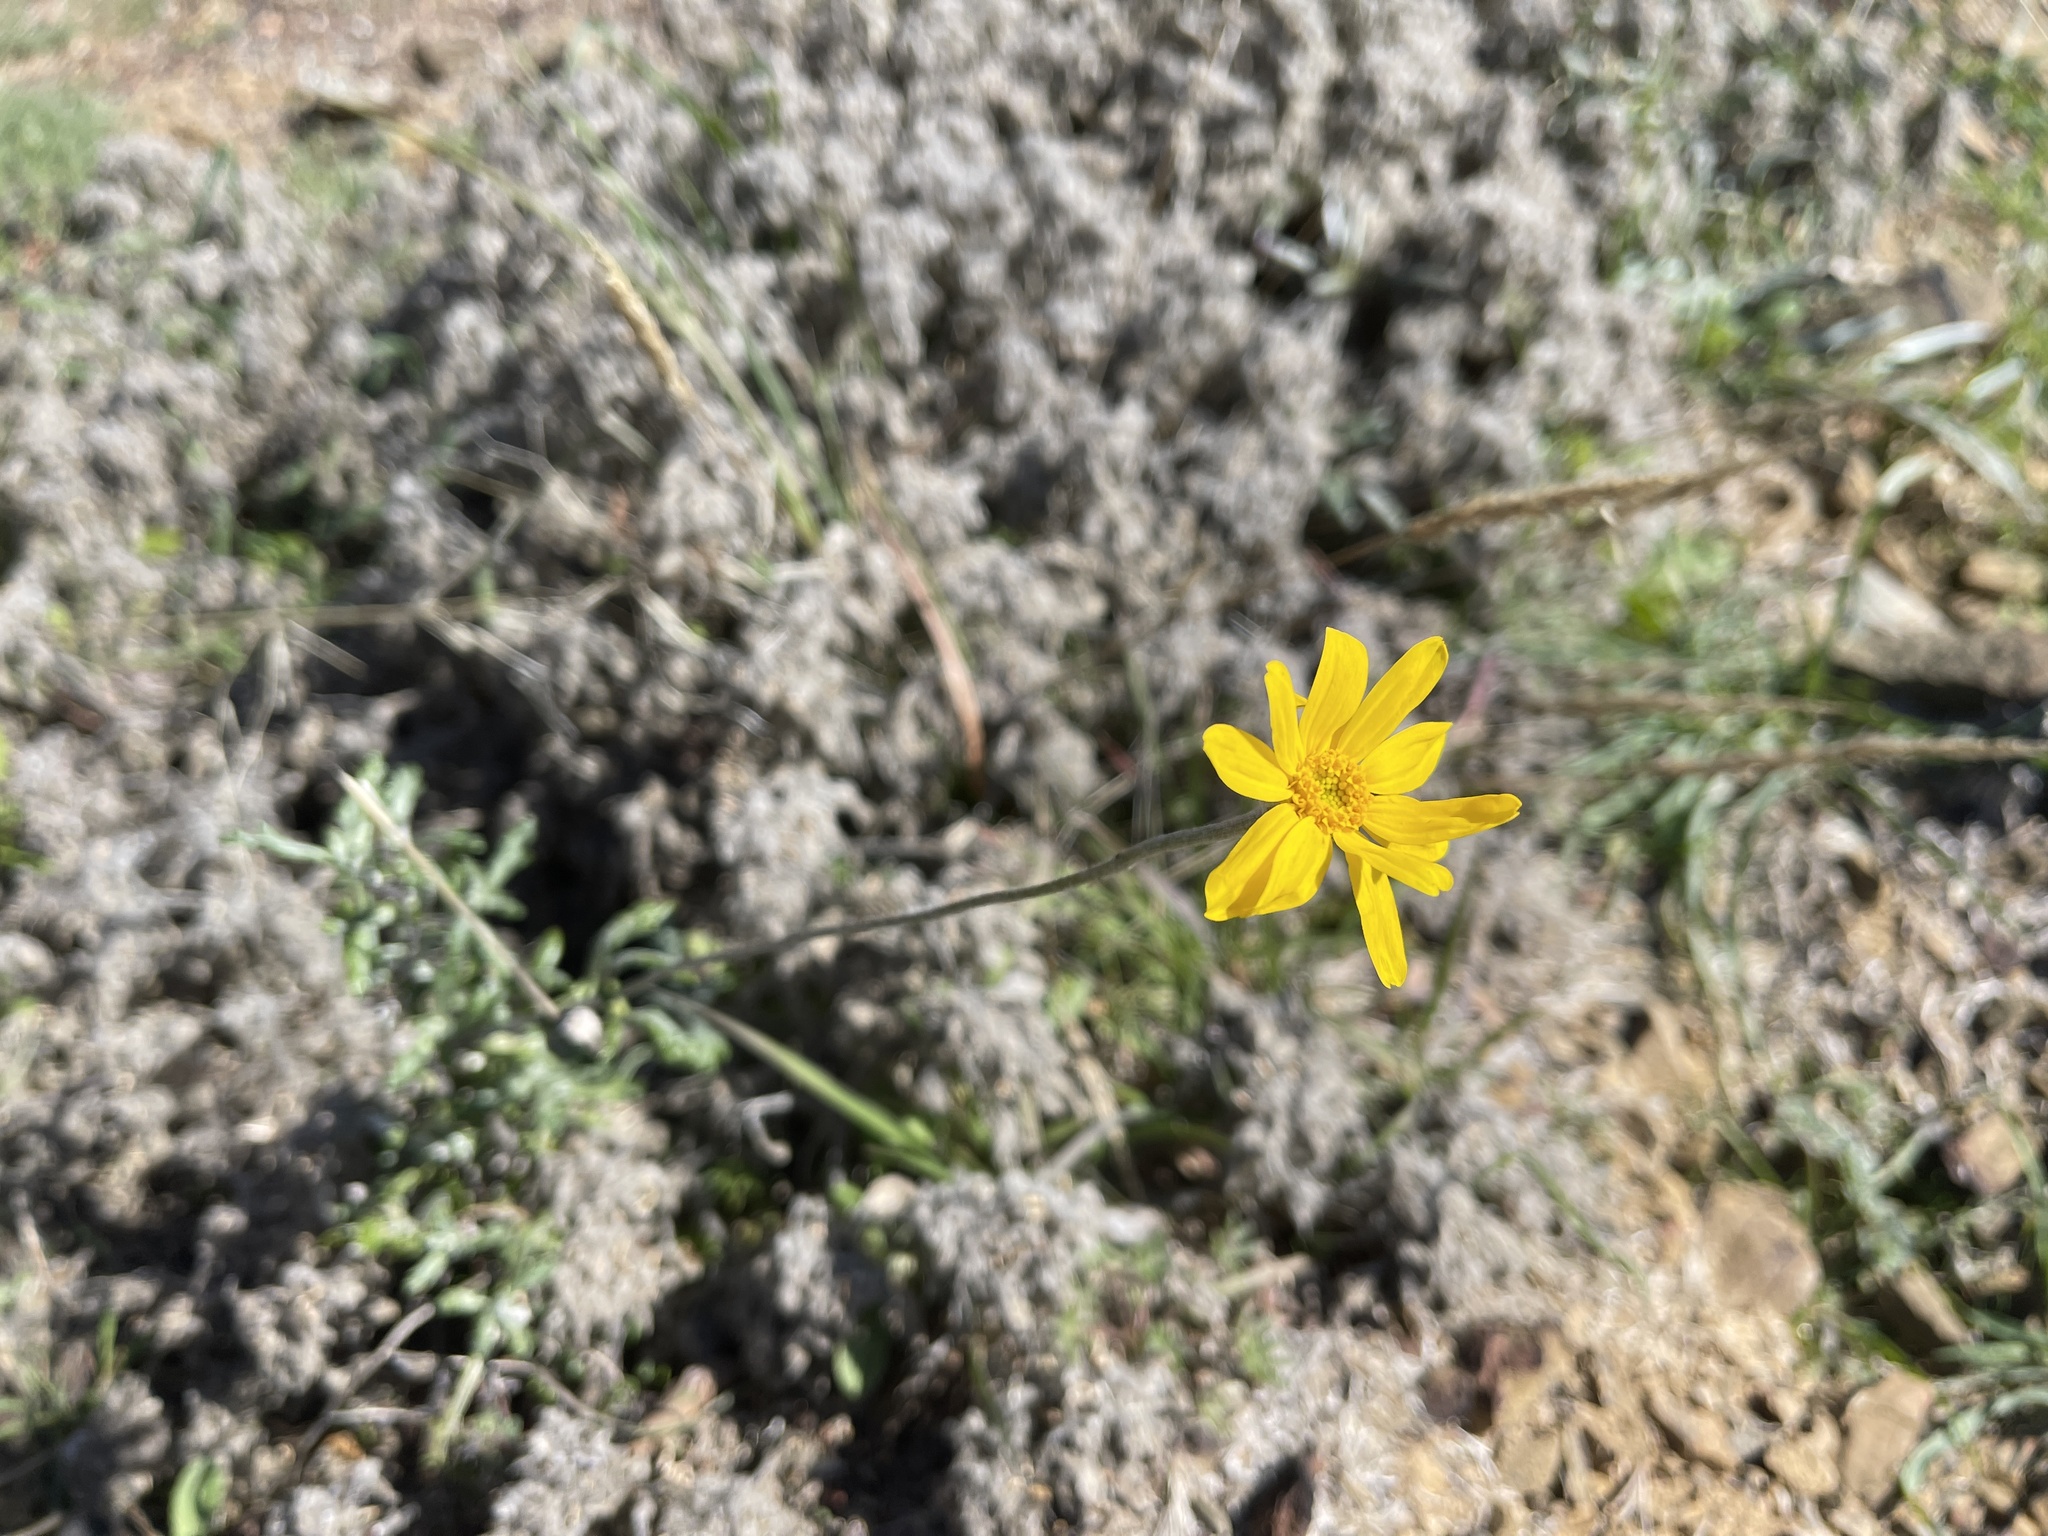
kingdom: Plantae
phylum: Tracheophyta
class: Magnoliopsida
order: Asterales
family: Asteraceae
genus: Eriophyllum
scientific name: Eriophyllum lanatum
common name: Common woolly-sunflower
